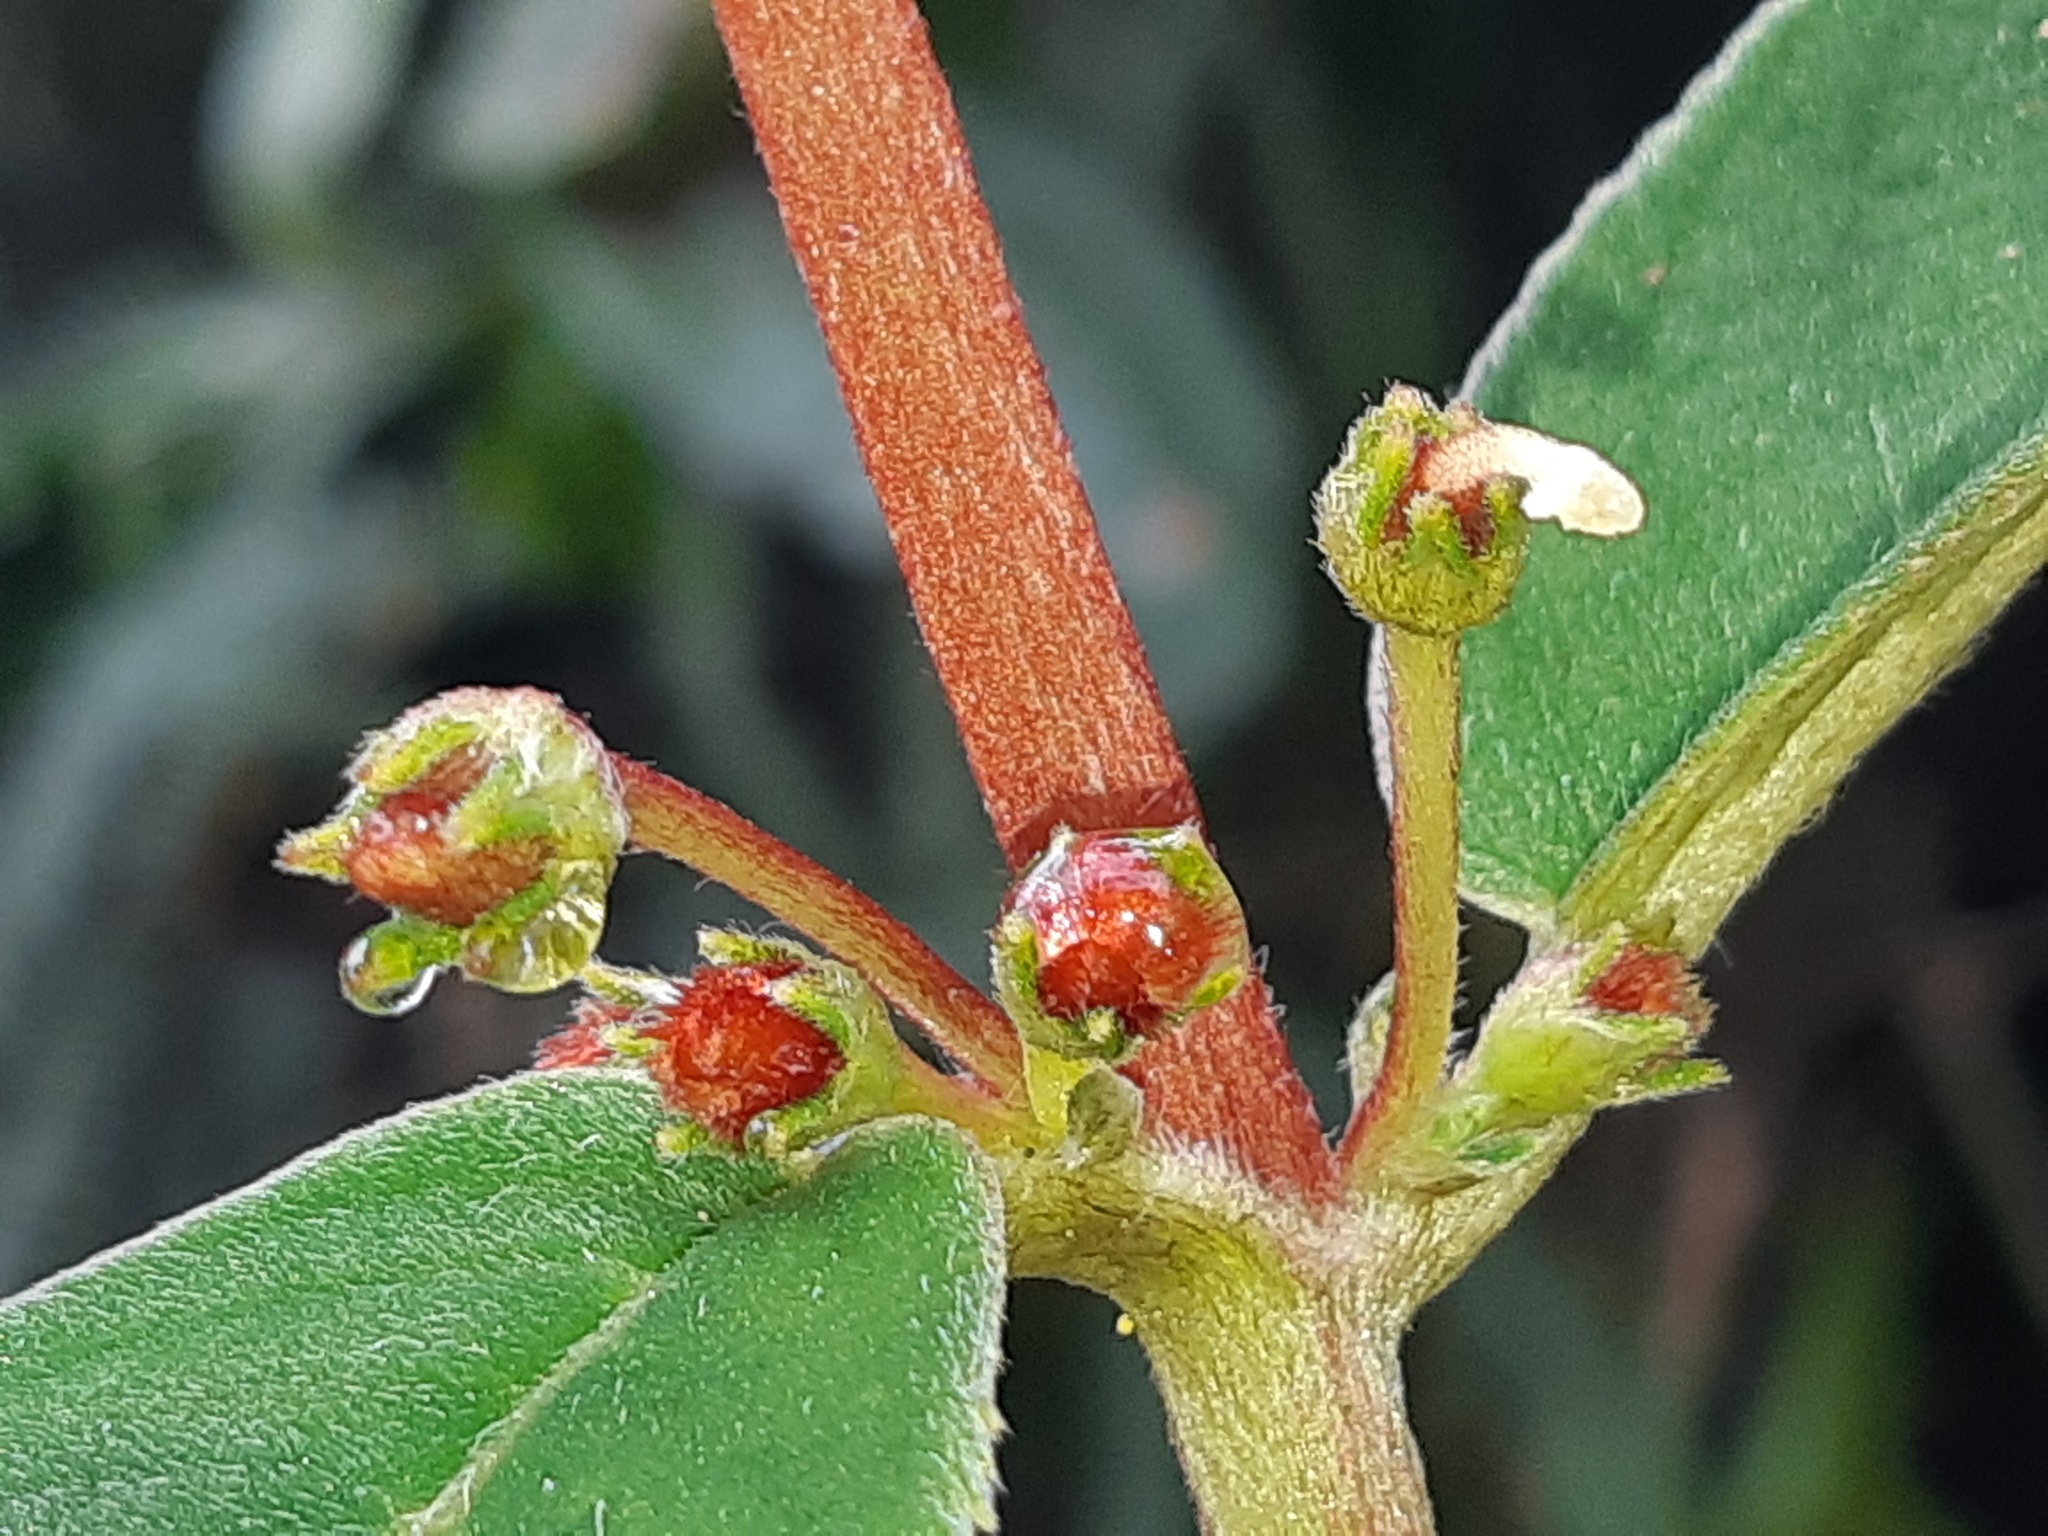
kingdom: Plantae
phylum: Tracheophyta
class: Magnoliopsida
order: Lamiales
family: Gesneriaceae
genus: Kohleria
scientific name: Kohleria spicata
